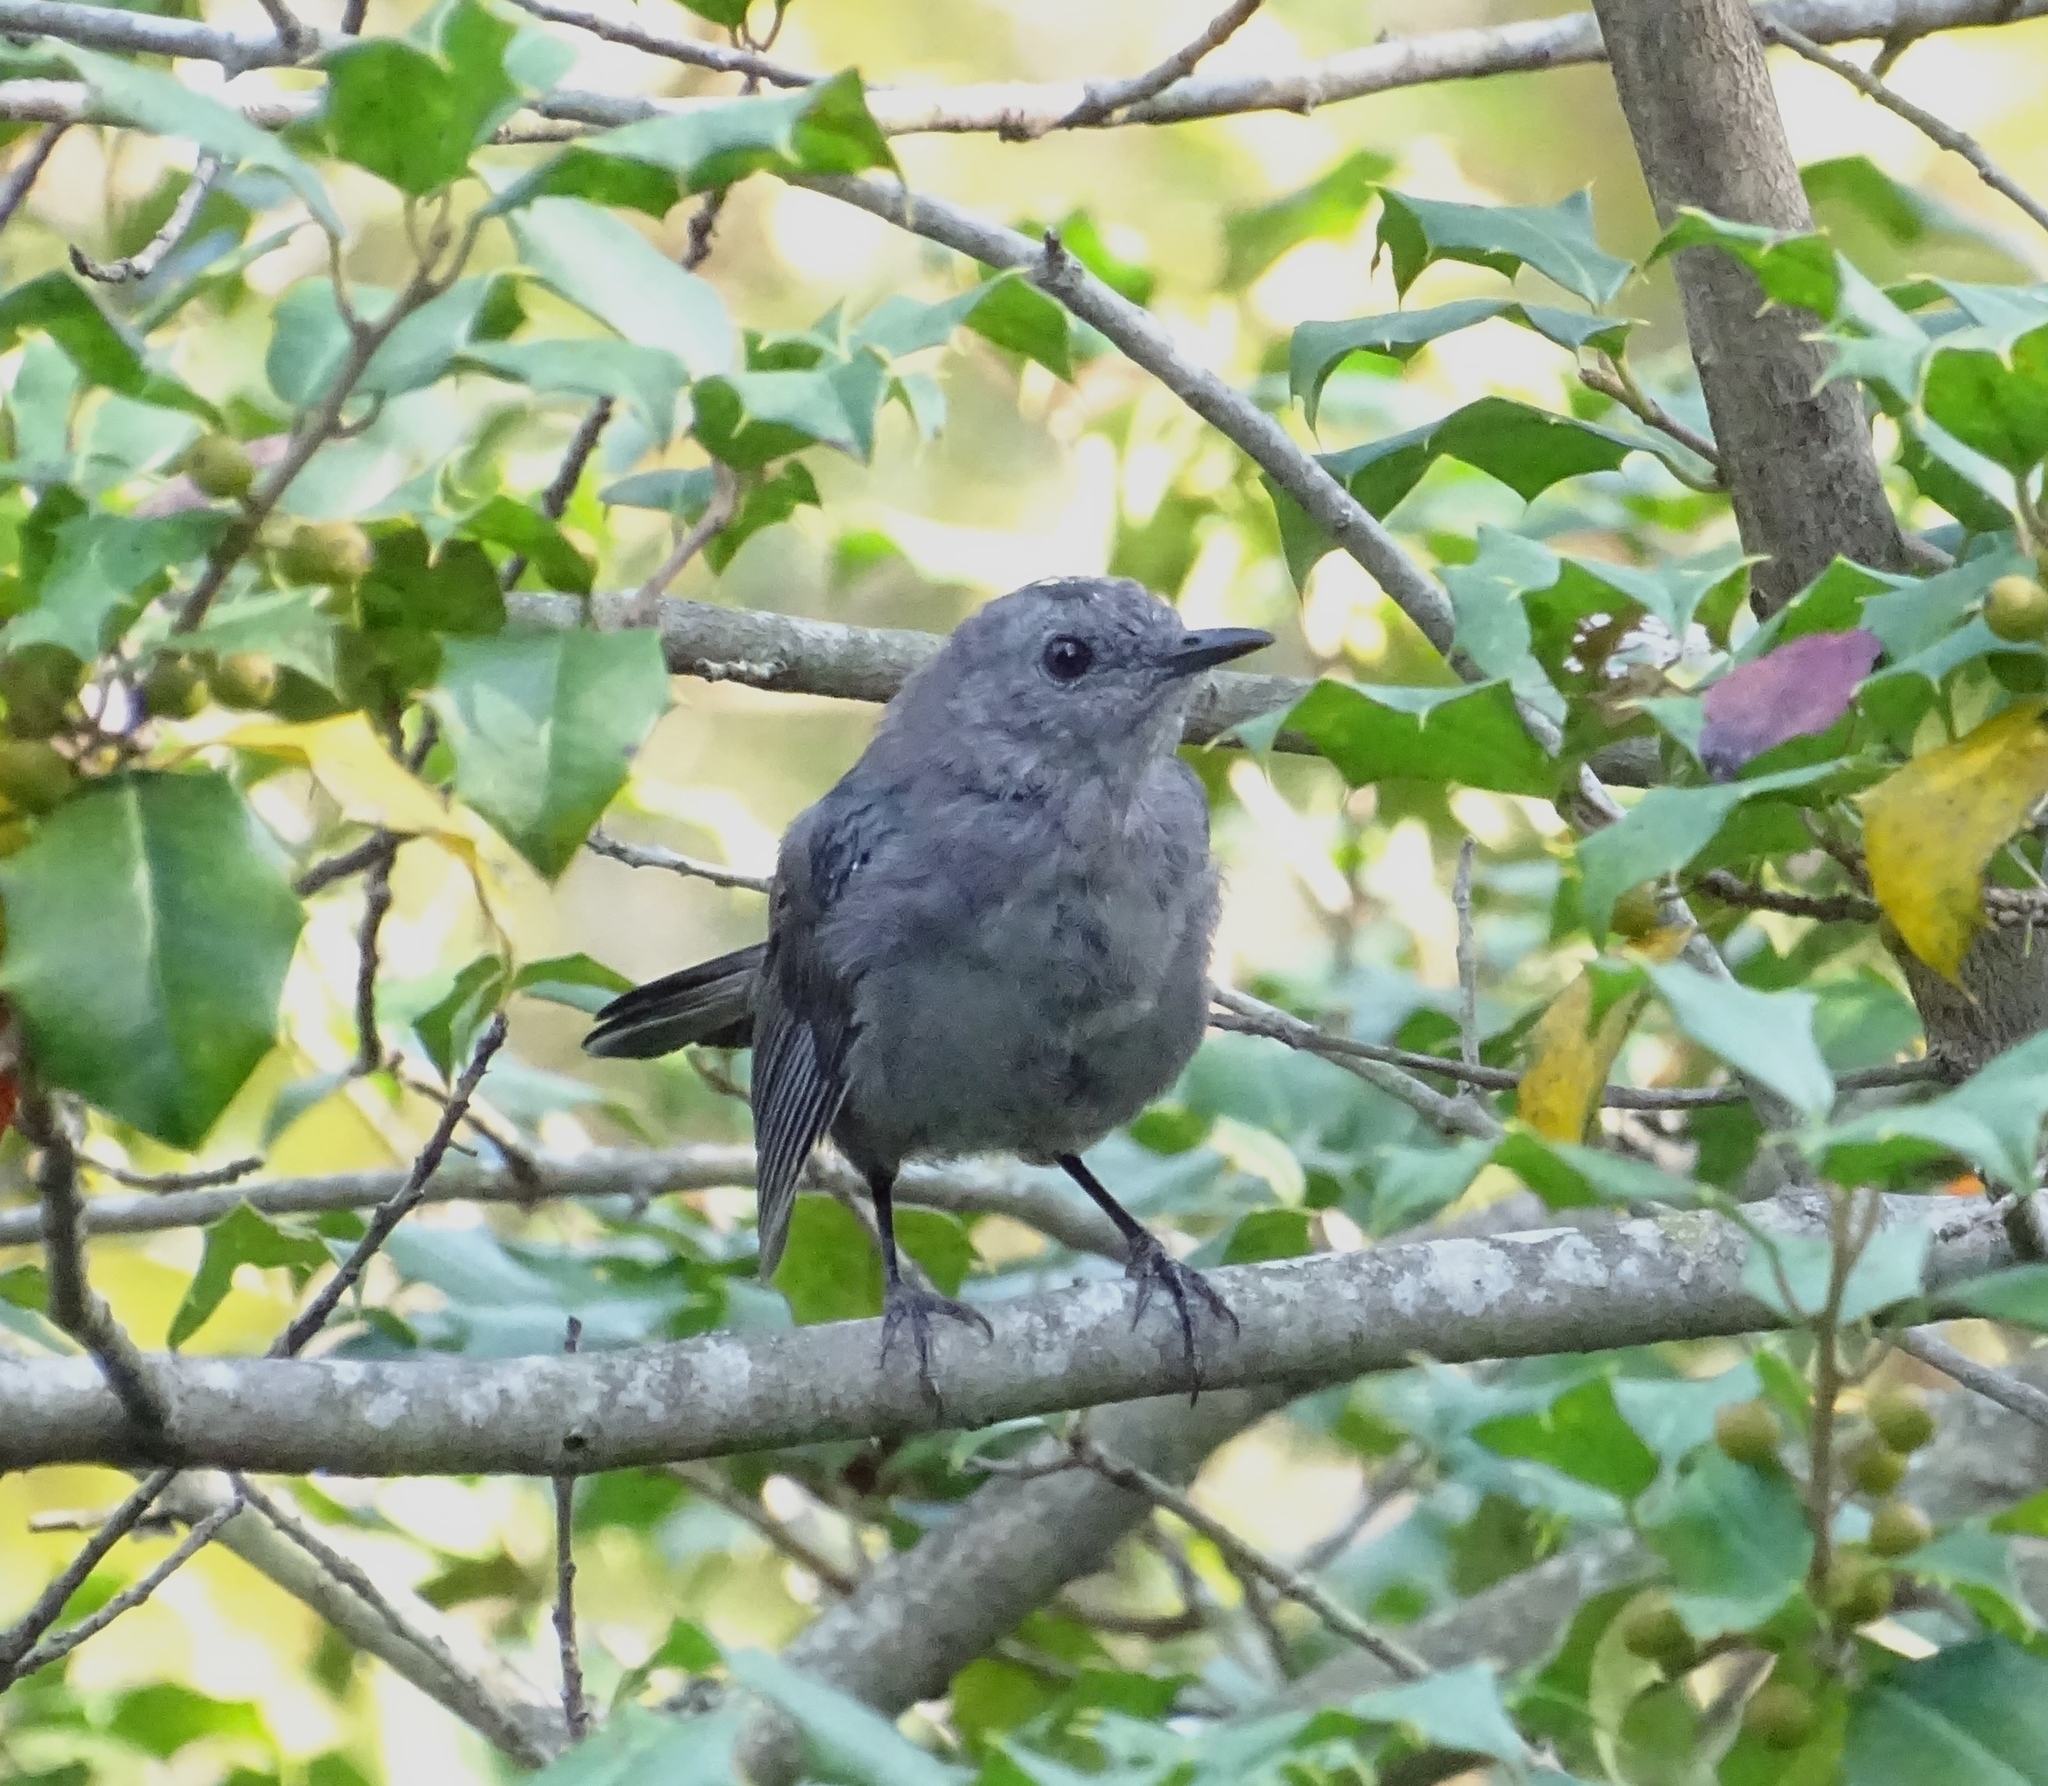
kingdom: Animalia
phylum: Chordata
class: Aves
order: Passeriformes
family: Mimidae
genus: Dumetella
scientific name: Dumetella carolinensis
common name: Gray catbird
